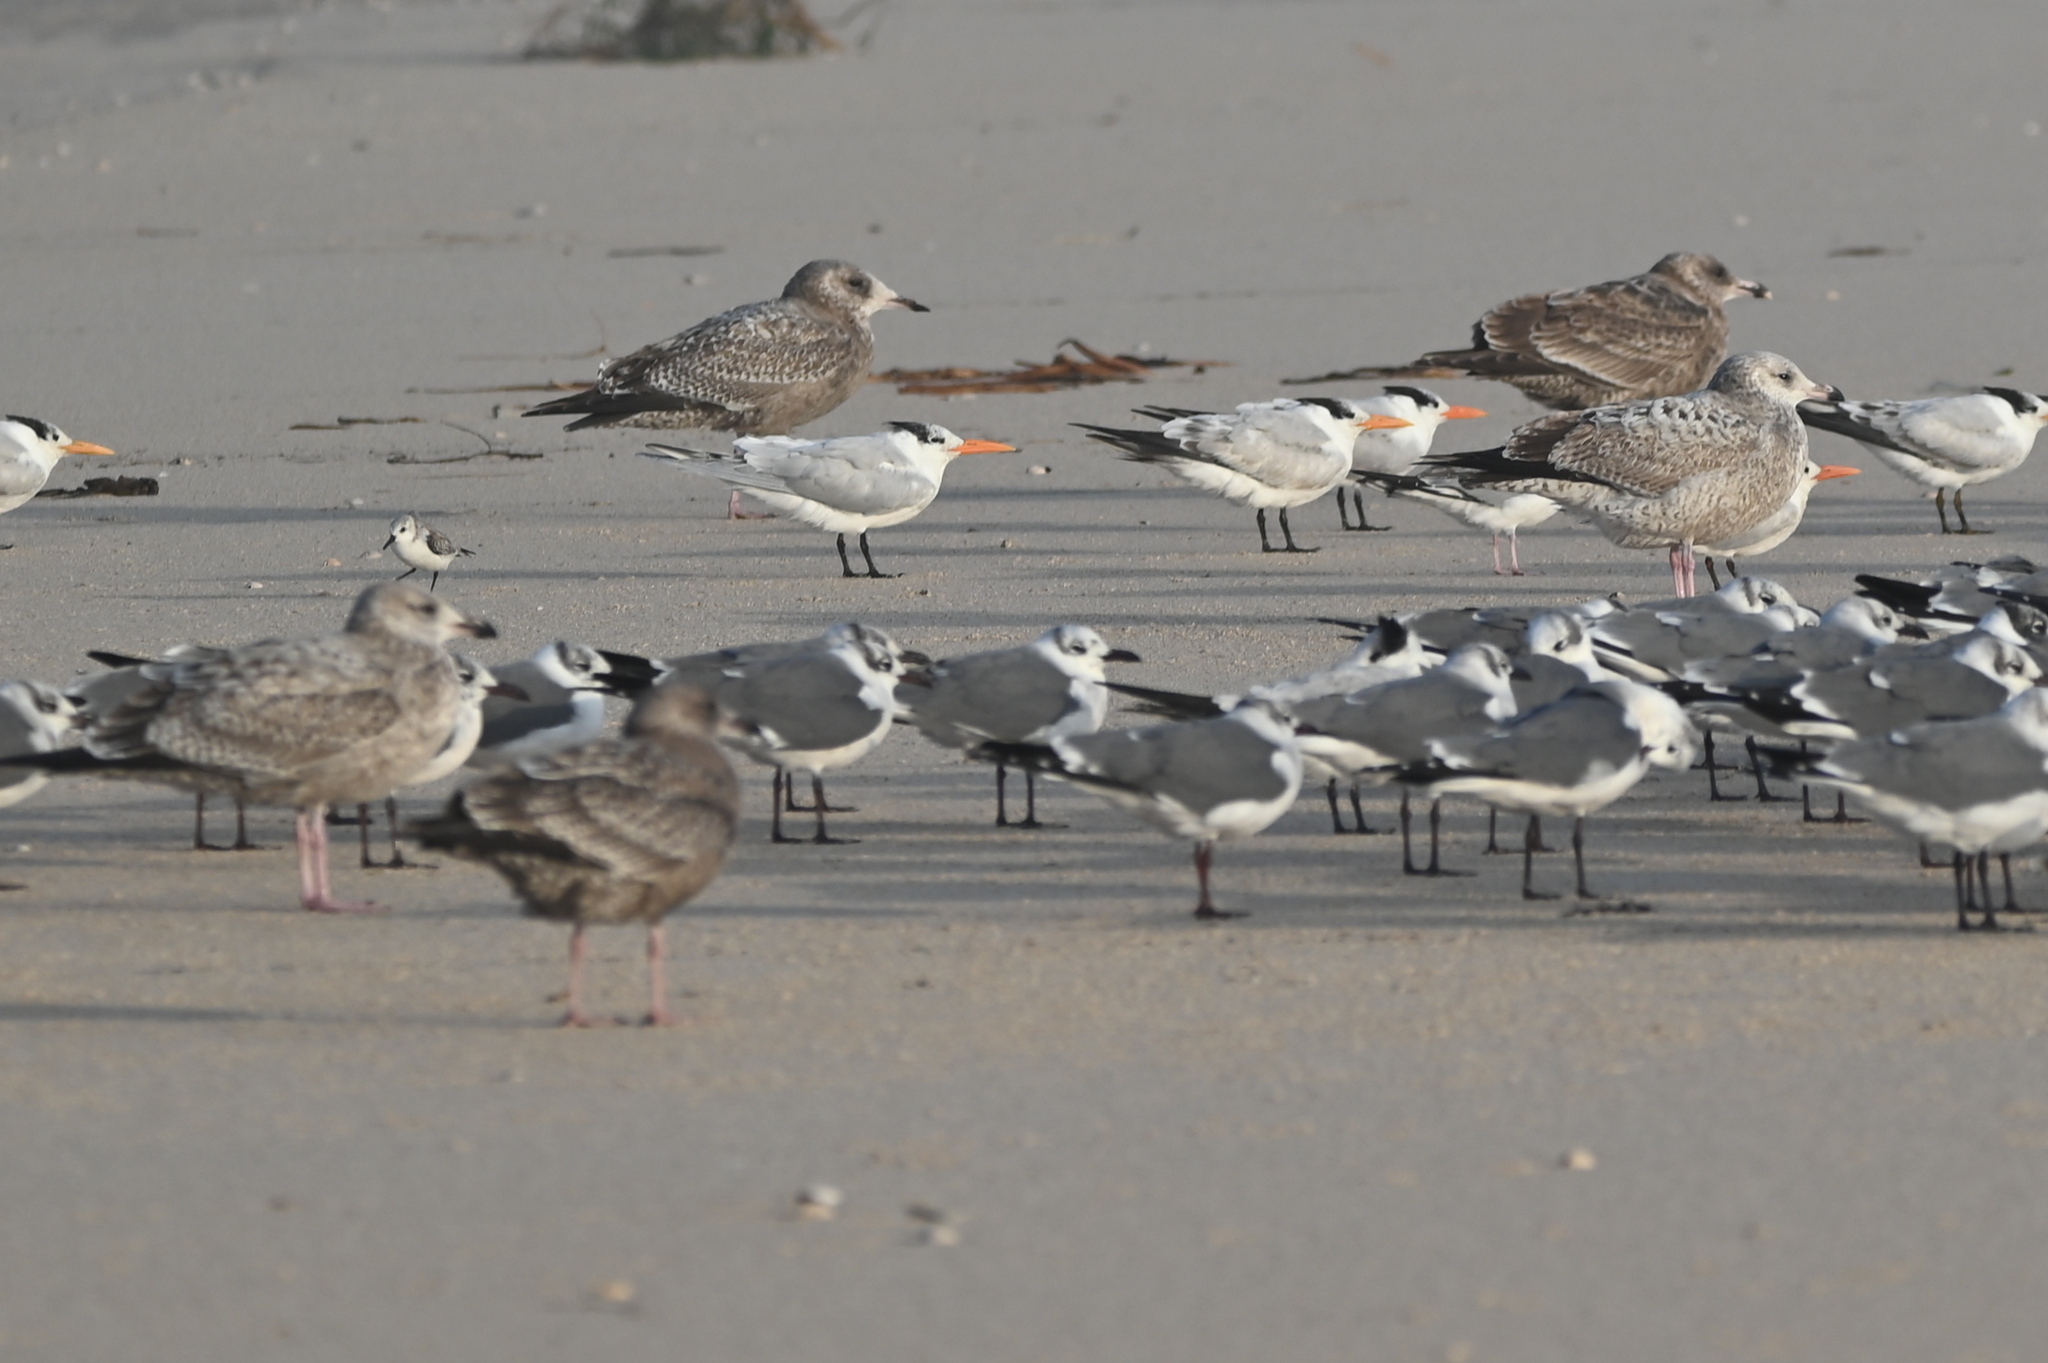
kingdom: Animalia
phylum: Chordata
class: Aves
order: Charadriiformes
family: Laridae
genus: Thalasseus
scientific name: Thalasseus maximus
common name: Royal tern
